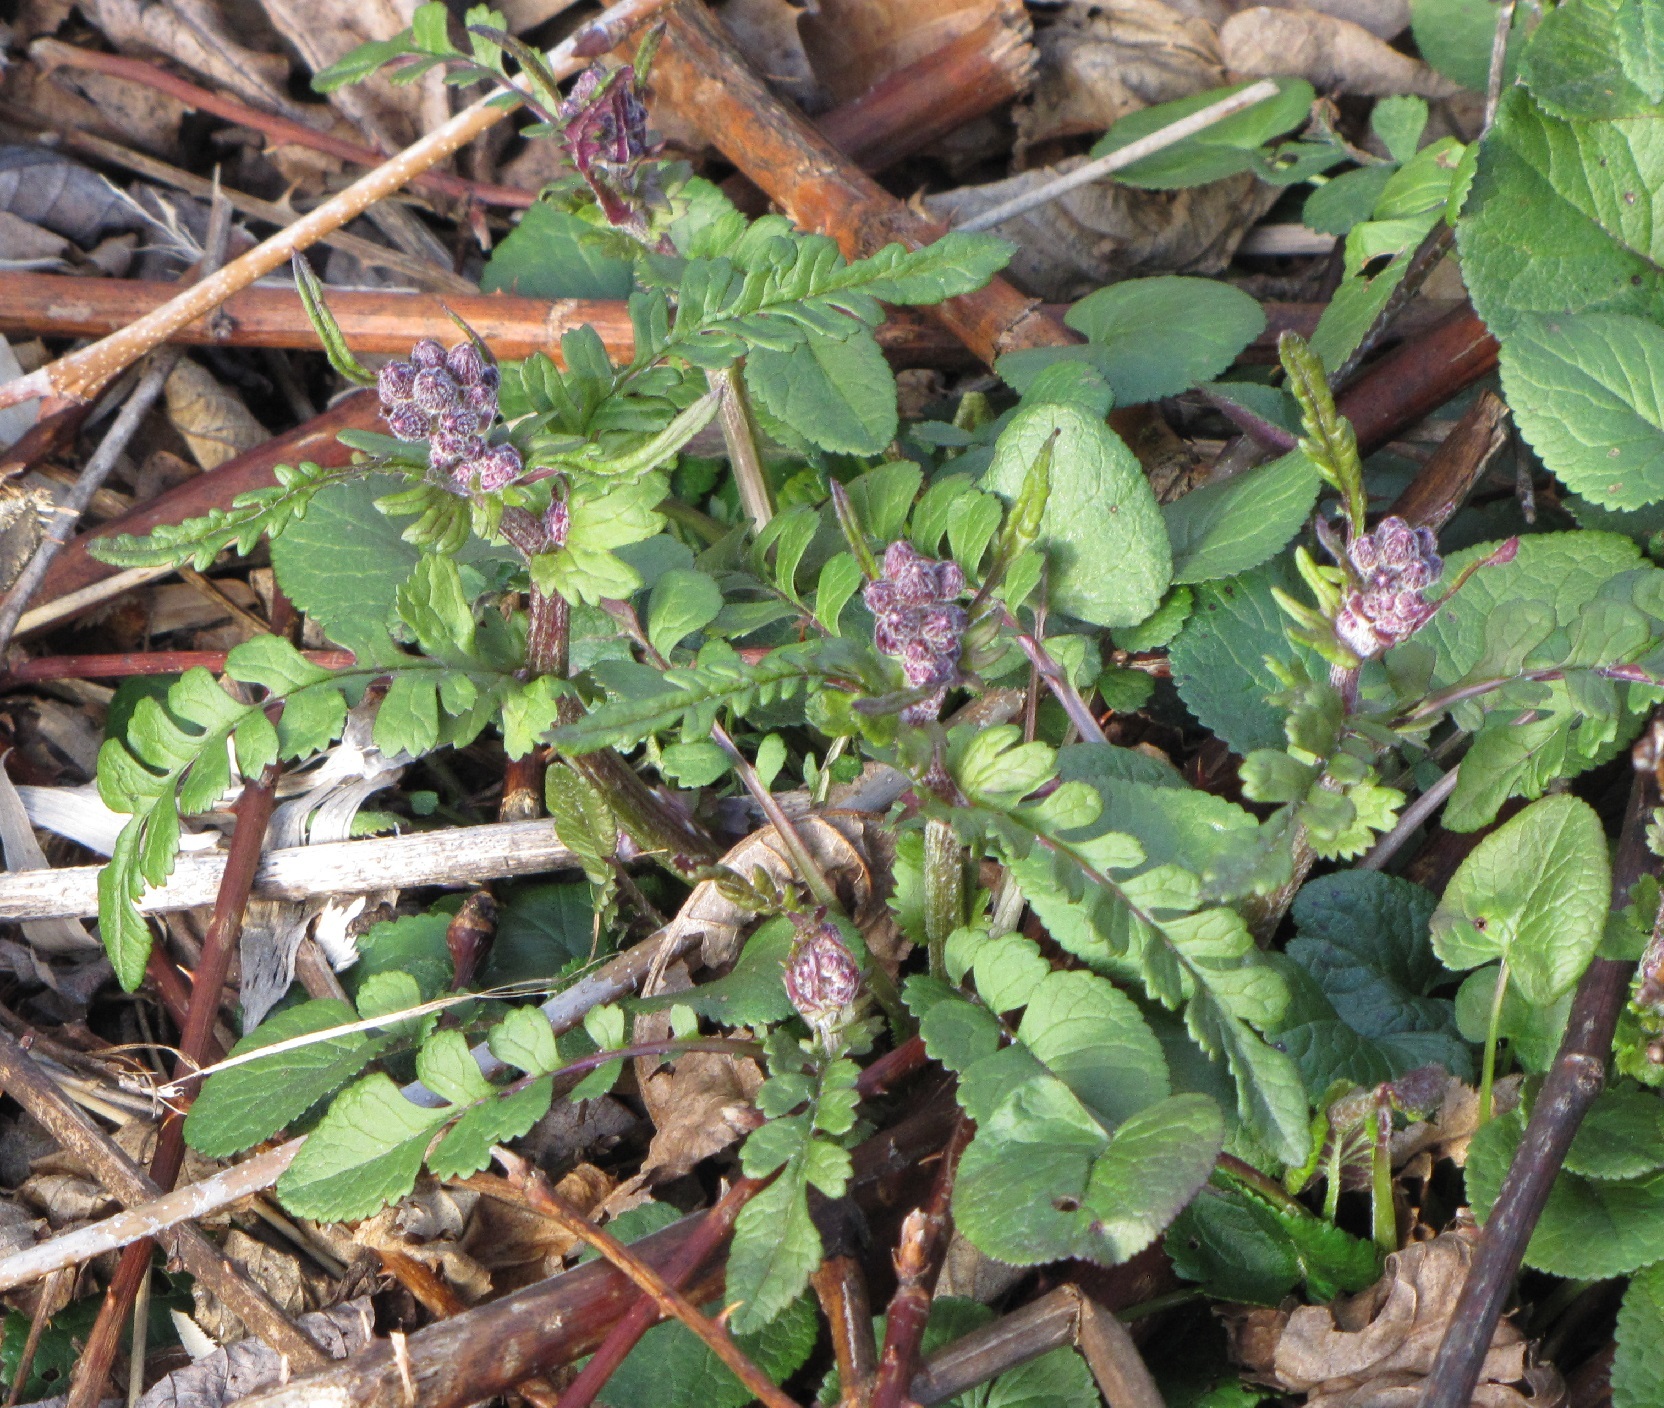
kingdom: Plantae
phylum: Tracheophyta
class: Magnoliopsida
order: Asterales
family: Asteraceae
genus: Packera
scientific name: Packera aurea
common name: Golden groundsel
